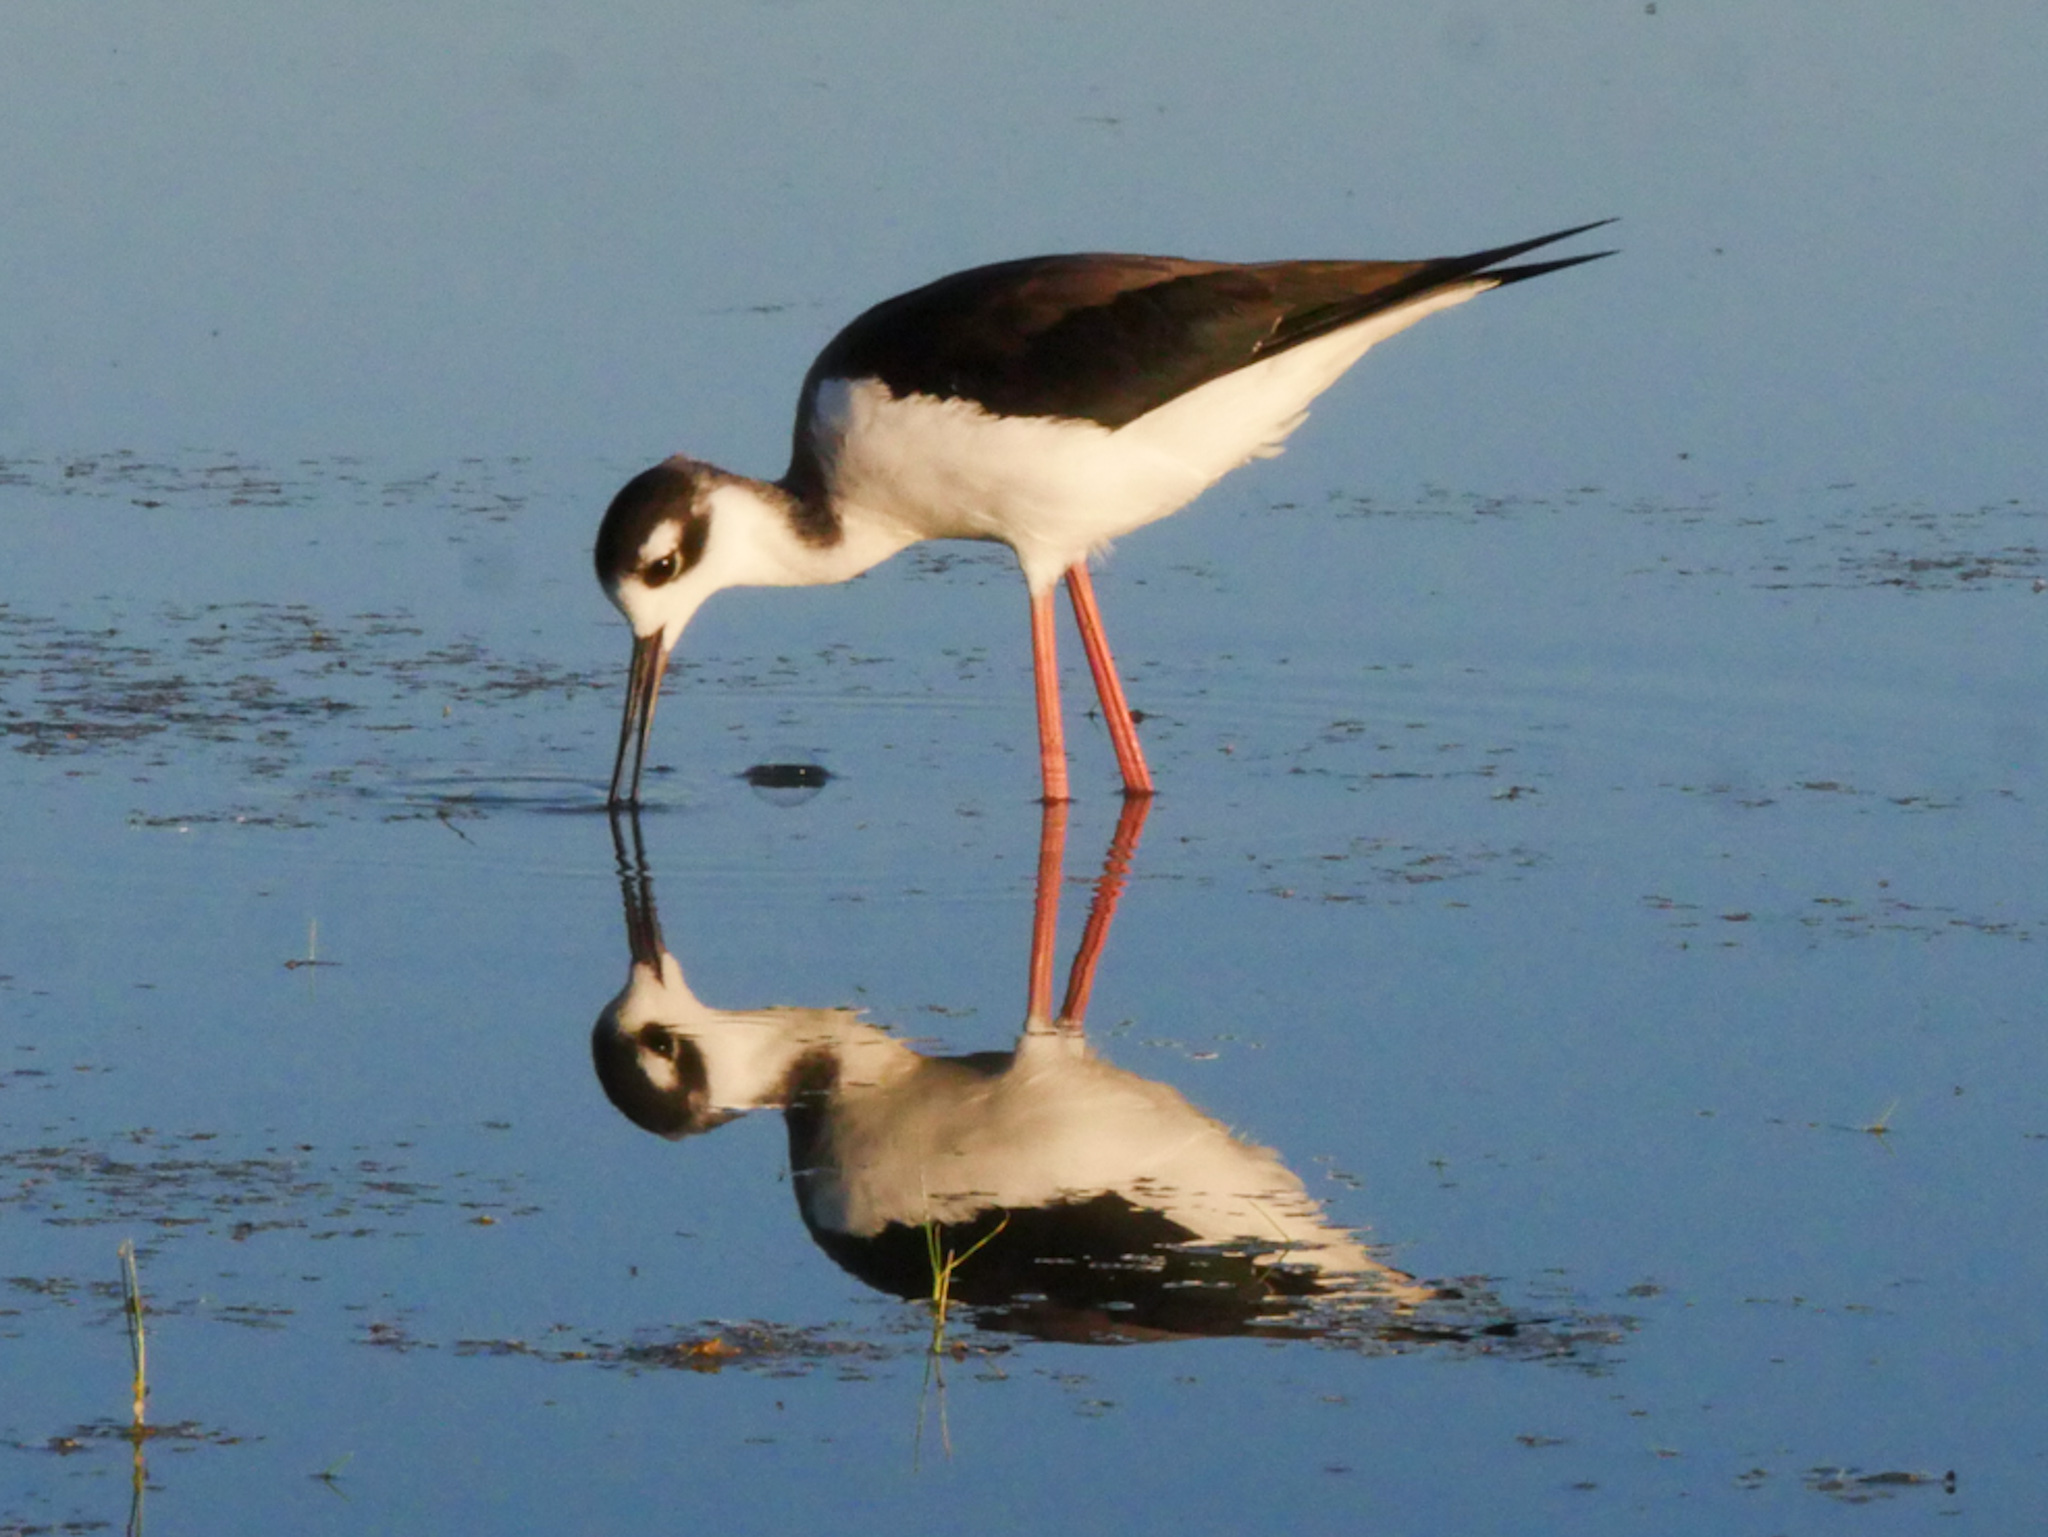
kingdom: Animalia
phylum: Chordata
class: Aves
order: Charadriiformes
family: Recurvirostridae
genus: Himantopus
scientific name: Himantopus mexicanus
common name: Black-necked stilt
